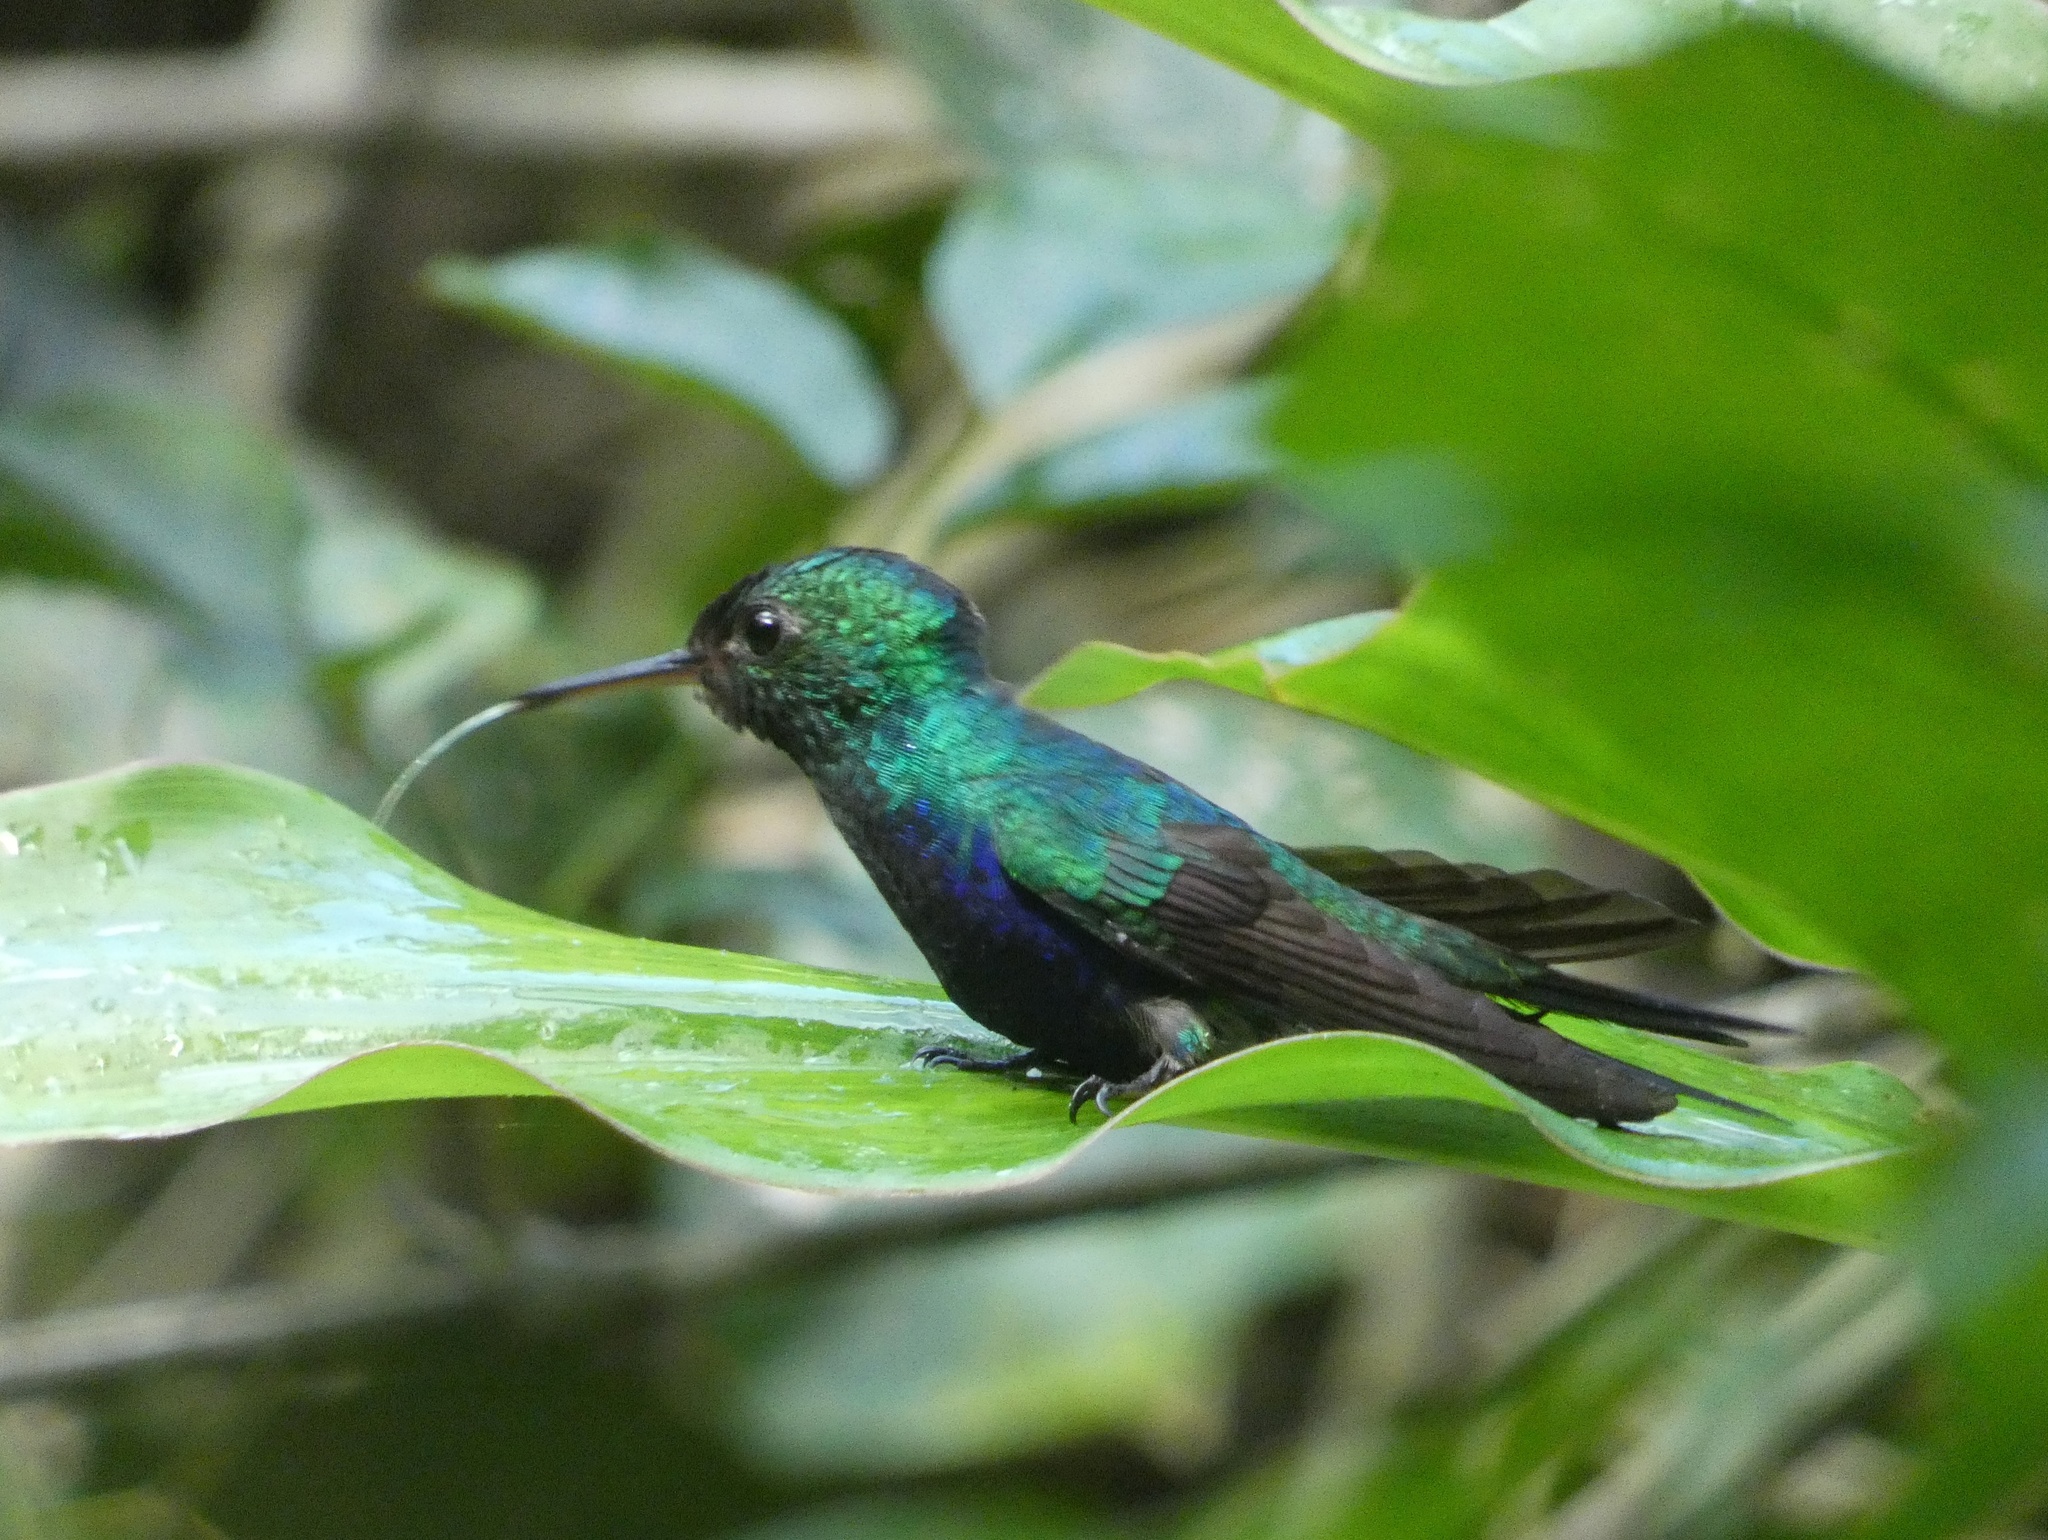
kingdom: Animalia
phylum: Chordata
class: Aves
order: Apodiformes
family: Trochilidae
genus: Chlorestes
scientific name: Chlorestes julie
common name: Violet-bellied hummingbird
